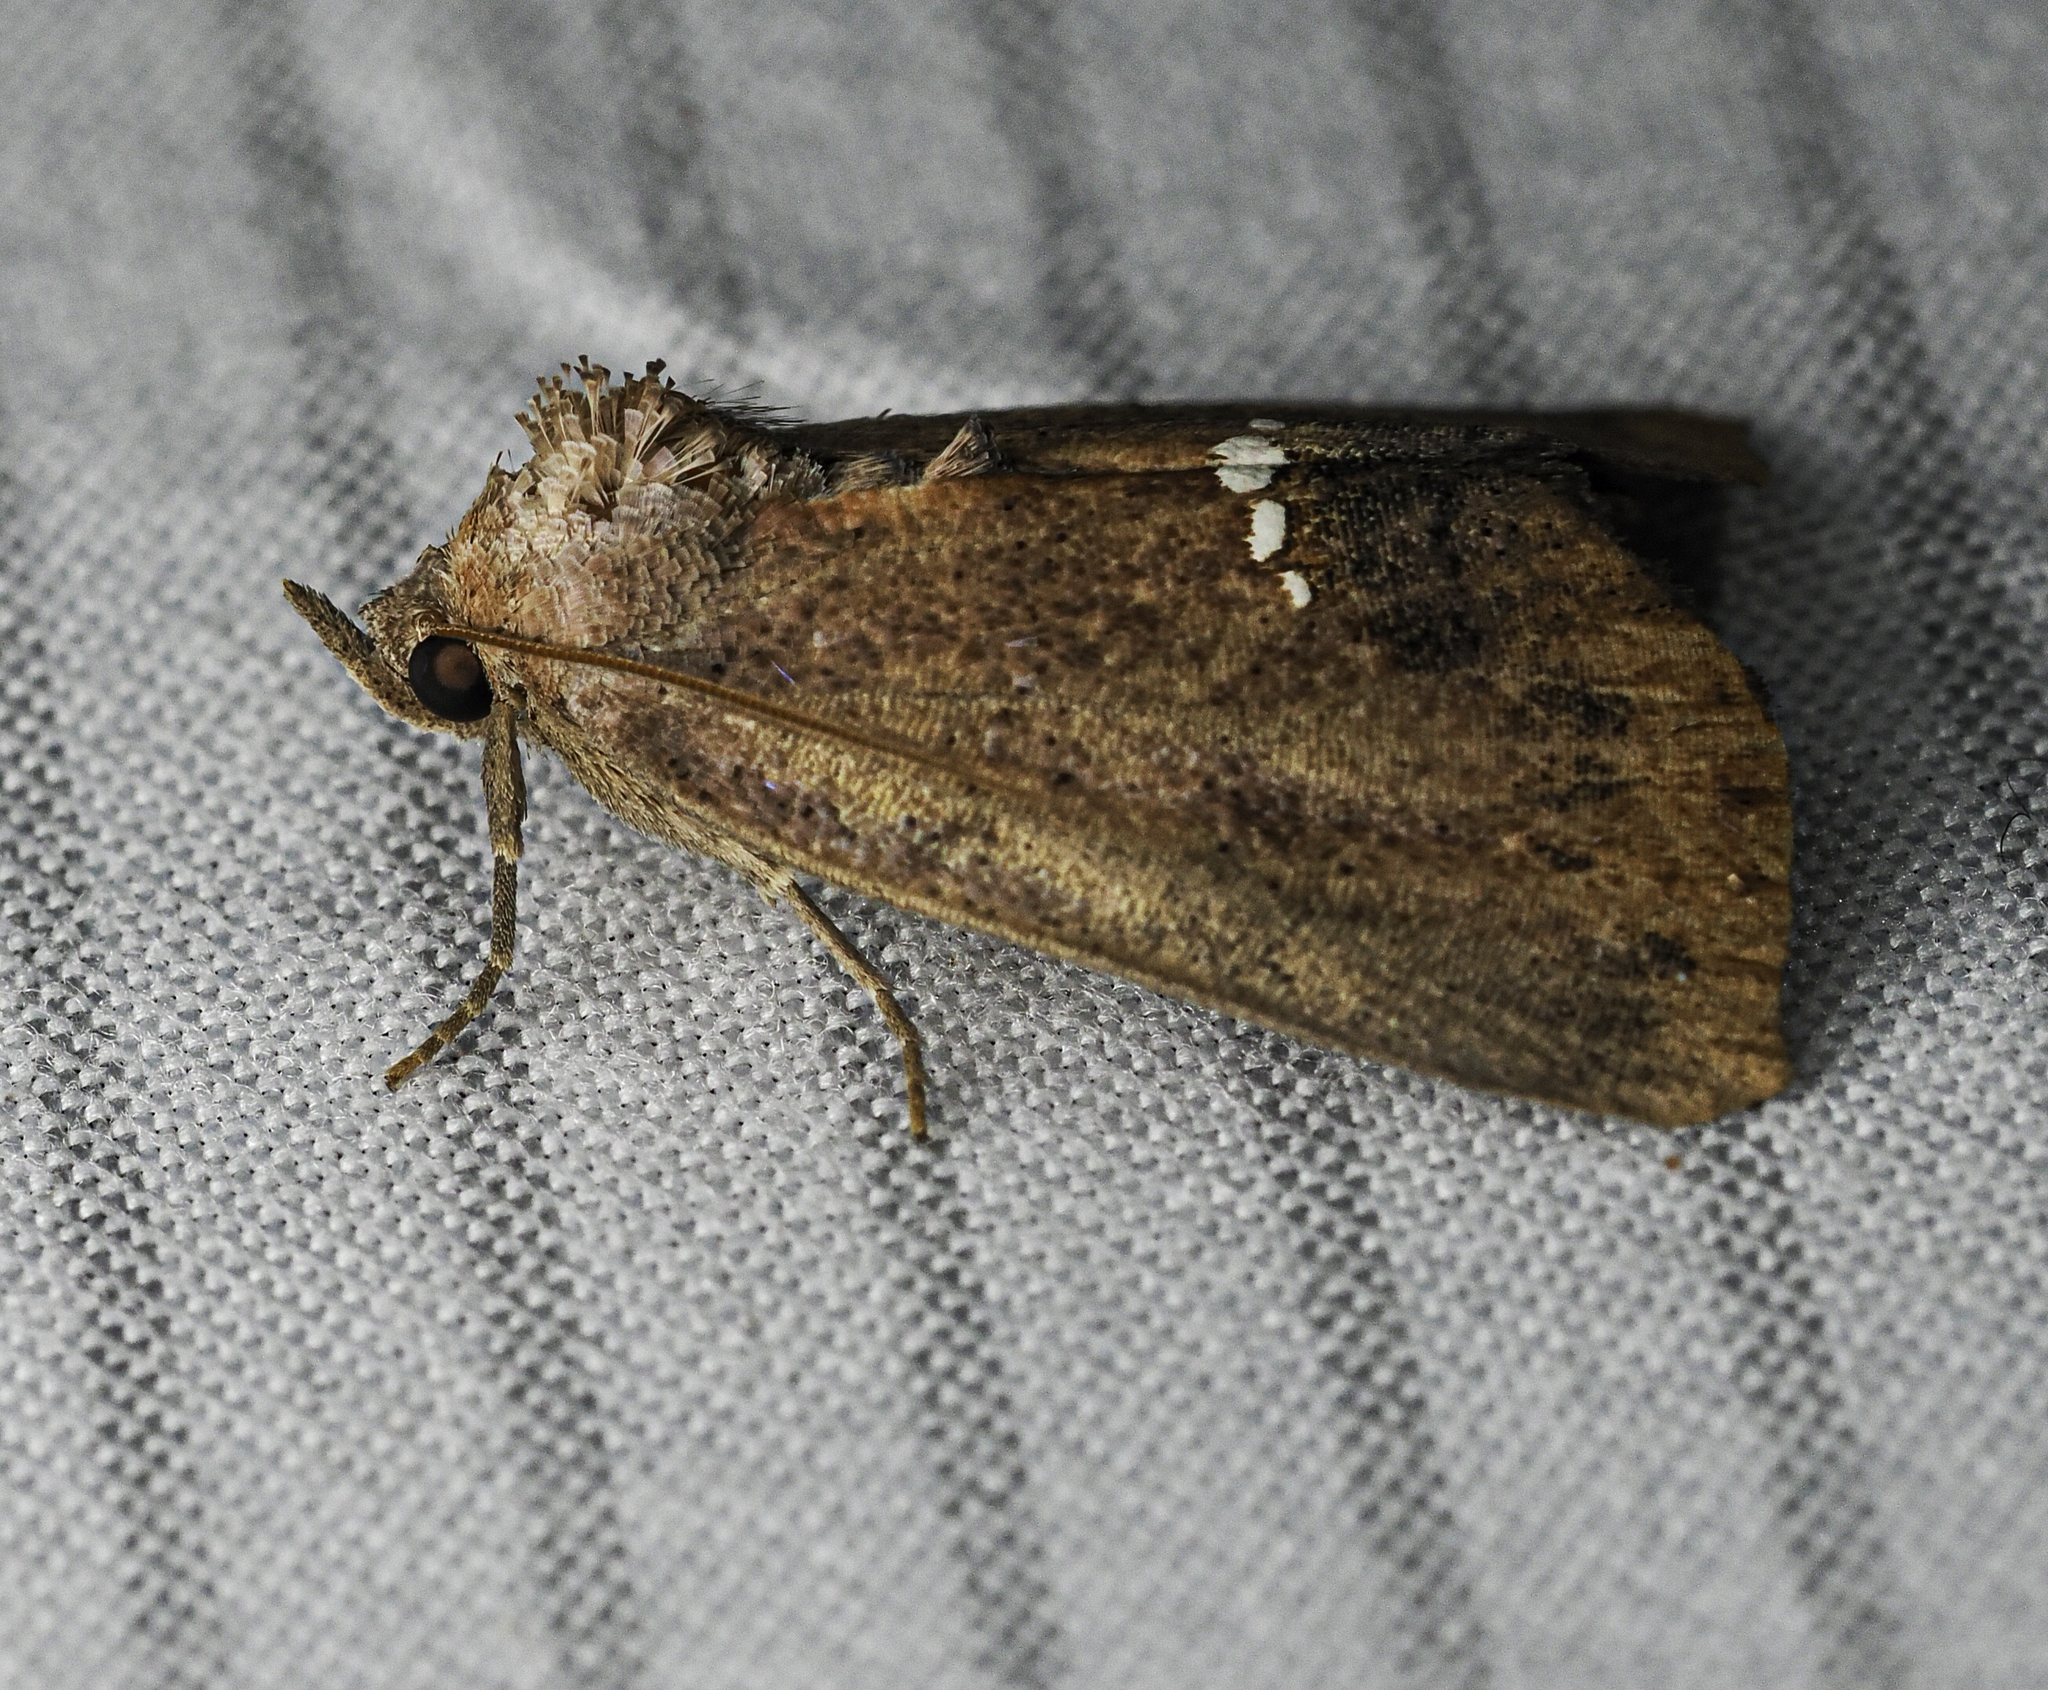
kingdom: Animalia
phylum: Arthropoda
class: Insecta
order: Lepidoptera
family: Erebidae
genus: Hypsoropha
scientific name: Hypsoropha hormos
